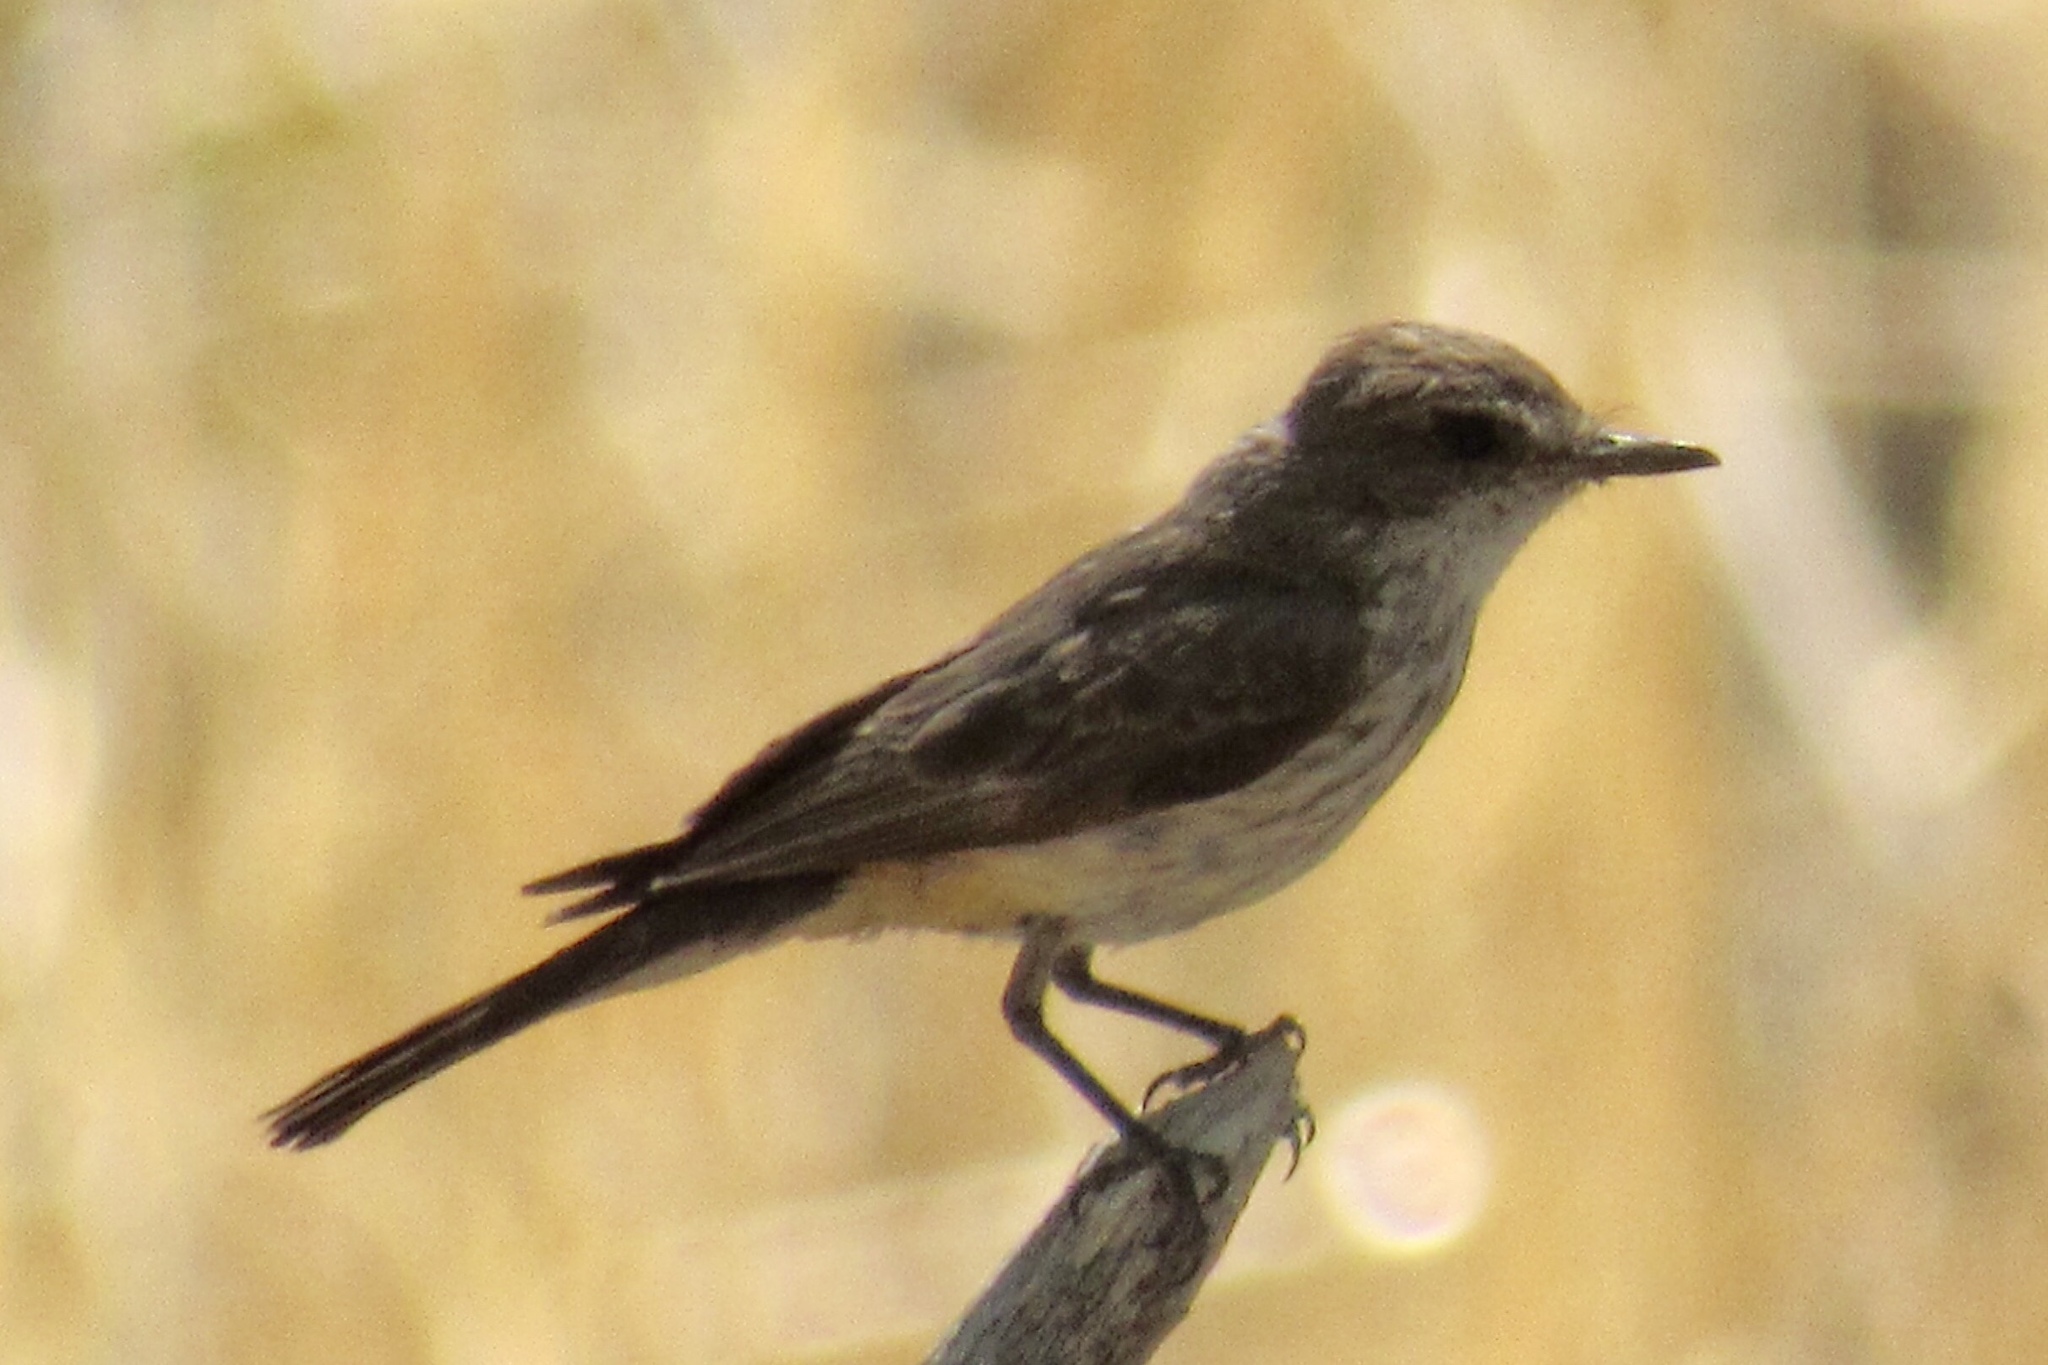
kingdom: Animalia
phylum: Chordata
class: Aves
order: Passeriformes
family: Tyrannidae
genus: Pyrocephalus
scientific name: Pyrocephalus rubinus
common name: Vermilion flycatcher
